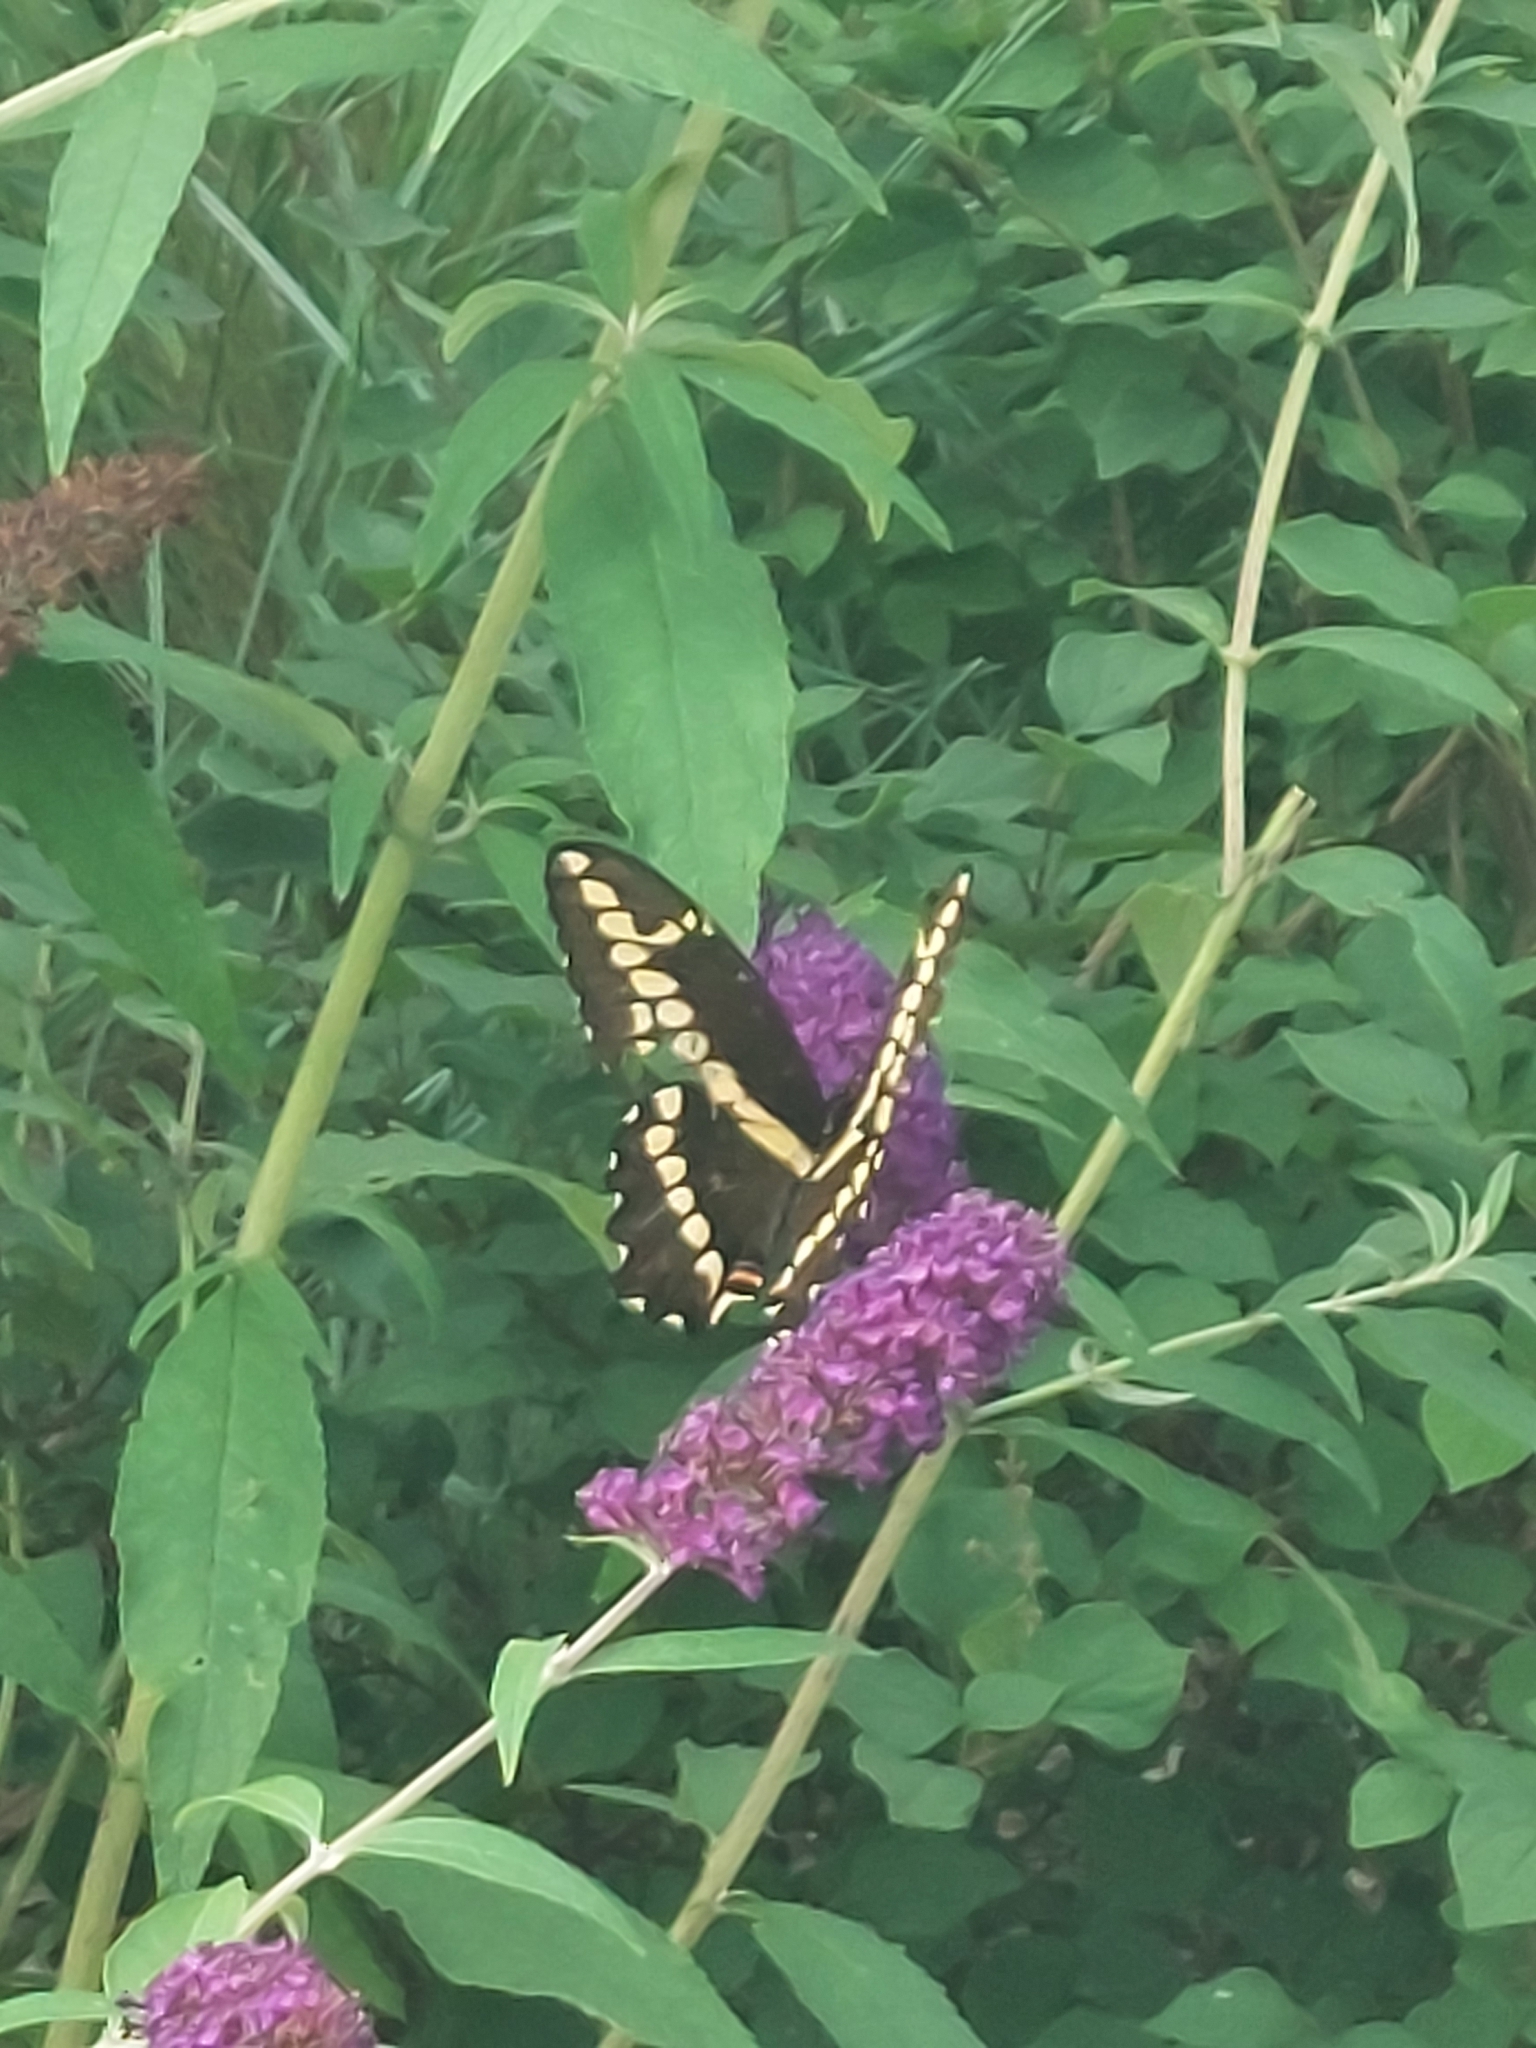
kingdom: Animalia
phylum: Arthropoda
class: Insecta
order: Lepidoptera
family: Papilionidae
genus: Papilio
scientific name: Papilio cresphontes
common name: Giant swallowtail
